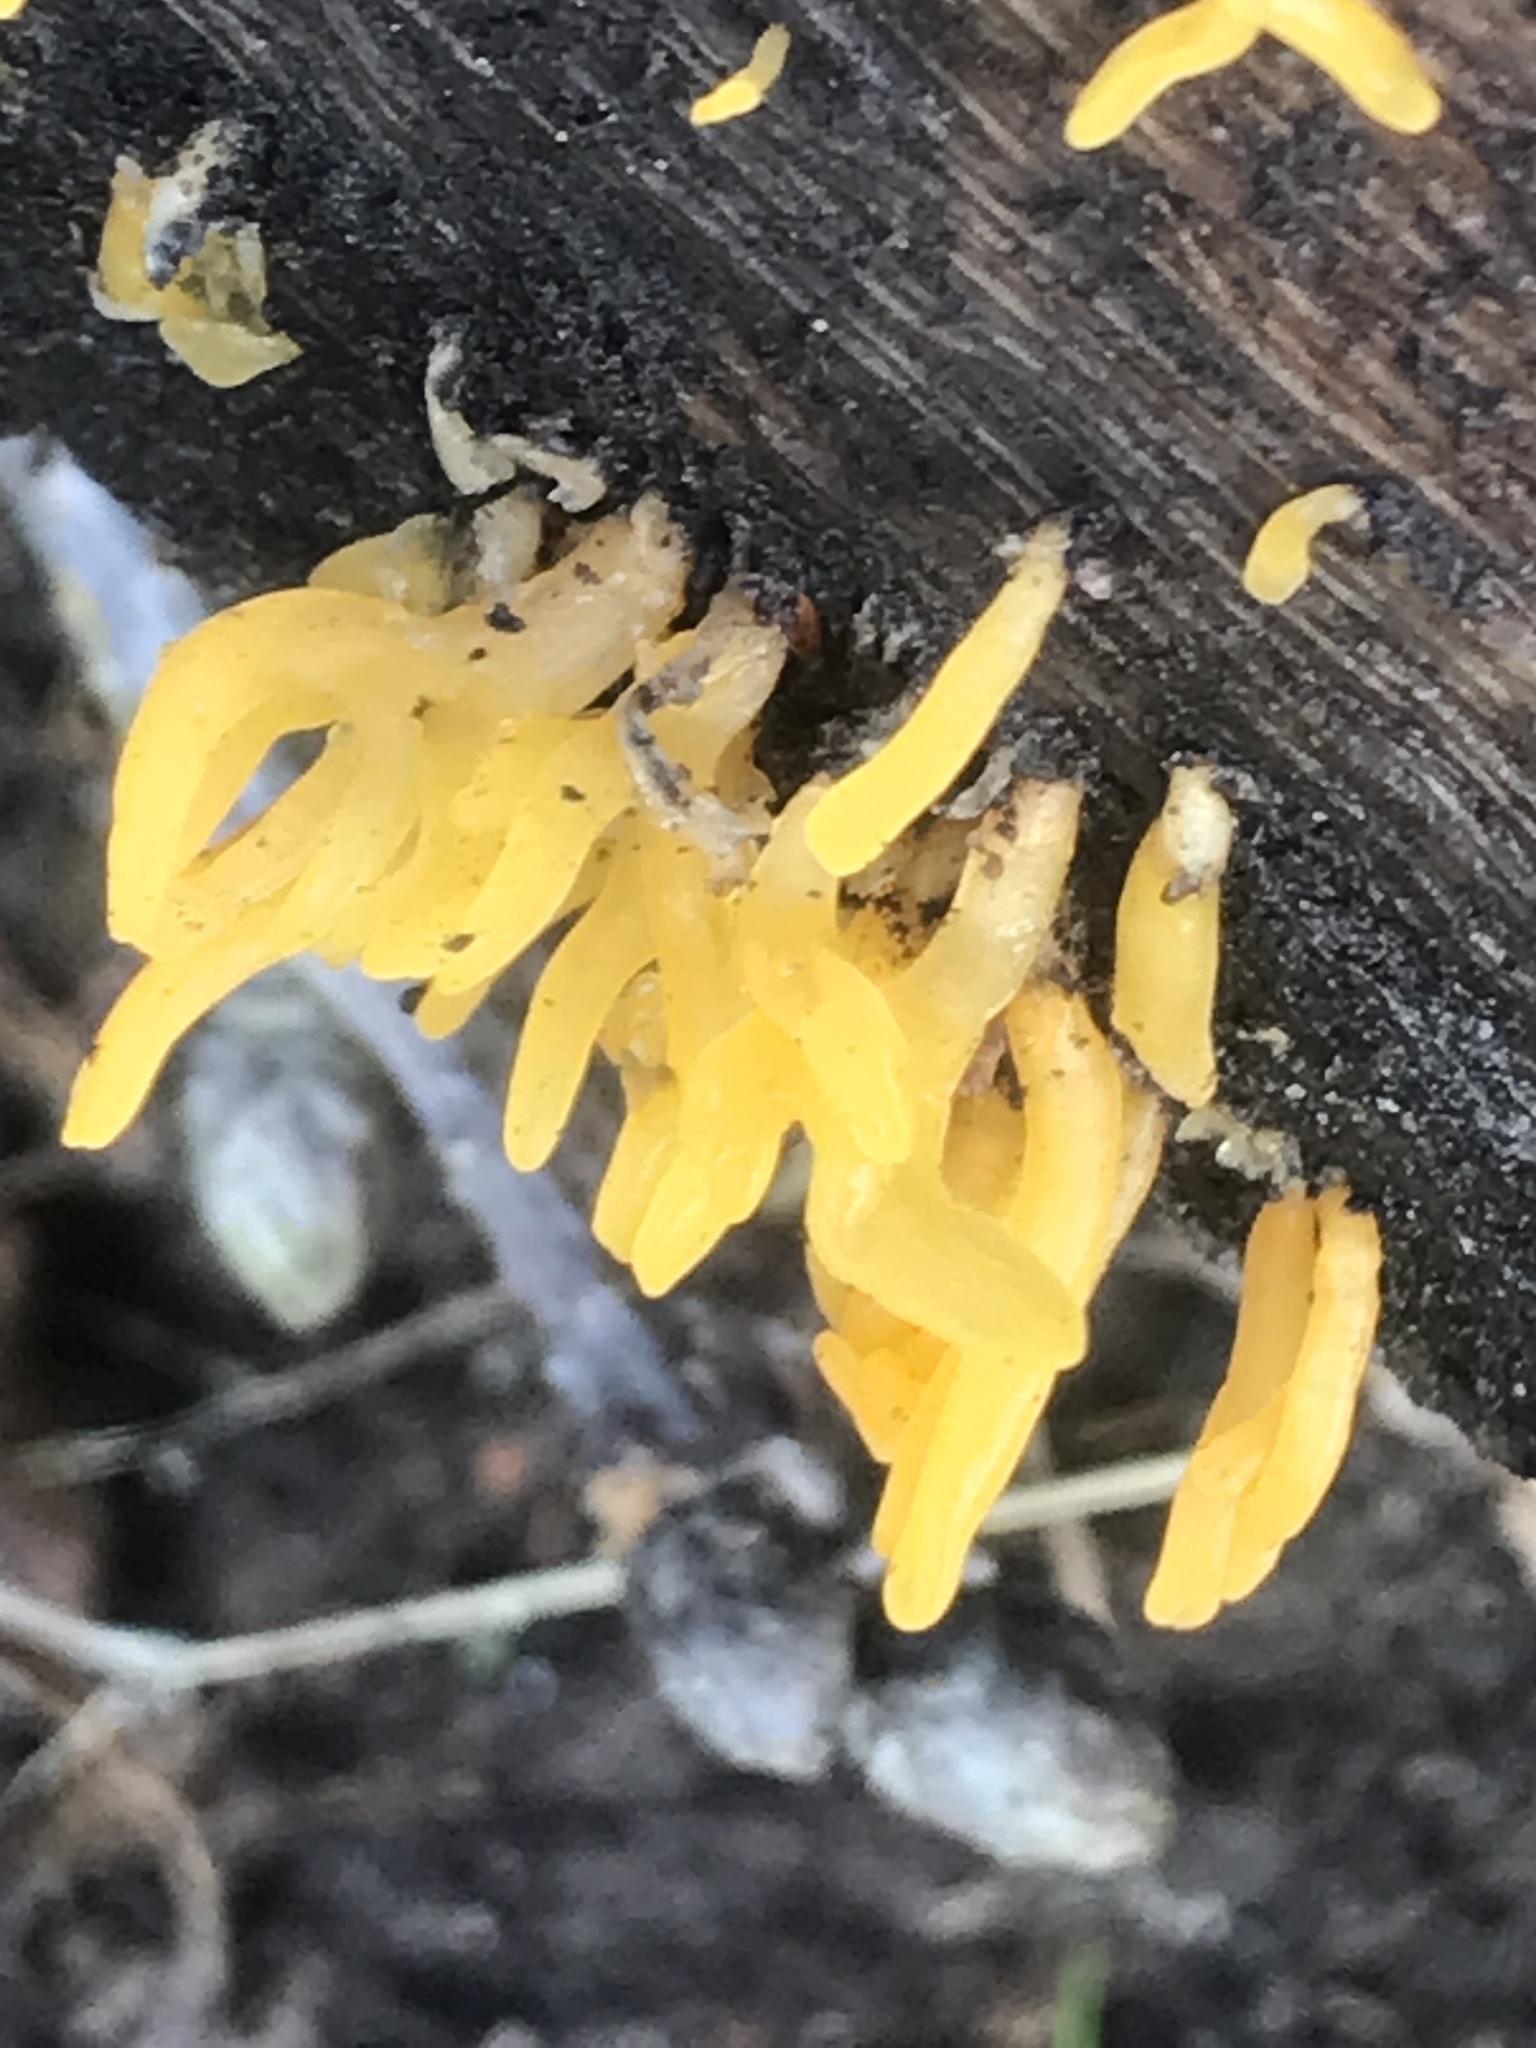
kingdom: Fungi
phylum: Basidiomycota
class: Dacrymycetes
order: Dacrymycetales
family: Dacrymycetaceae
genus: Calocera
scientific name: Calocera cornea
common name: Small stagshorn
